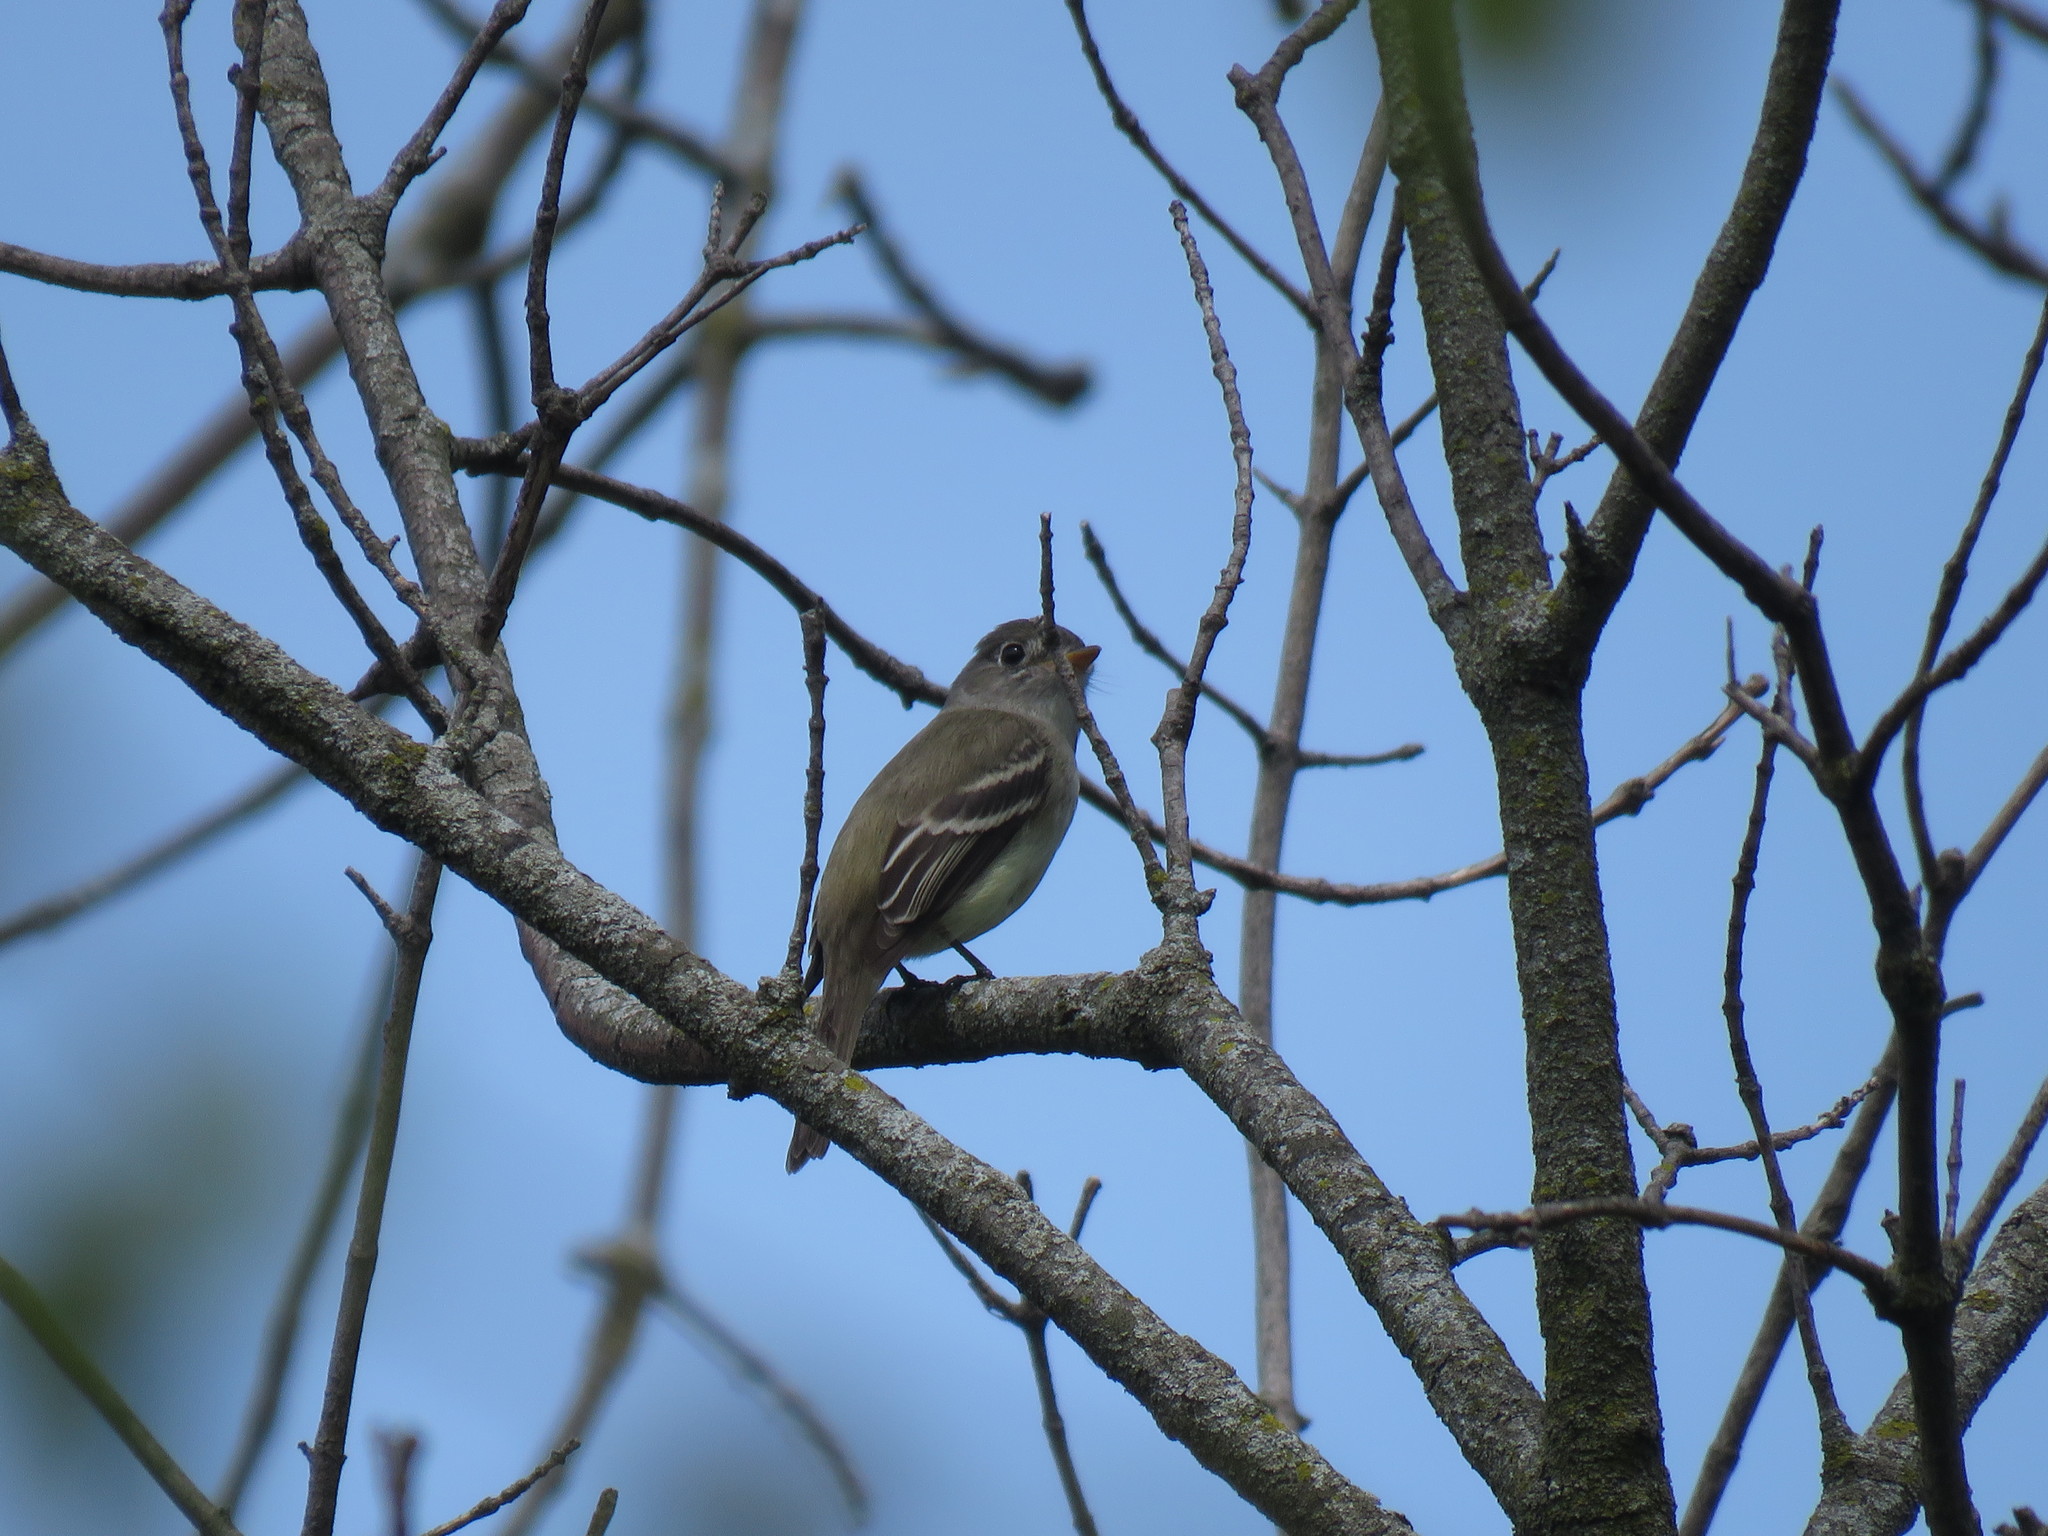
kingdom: Animalia
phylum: Chordata
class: Aves
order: Passeriformes
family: Tyrannidae
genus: Empidonax
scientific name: Empidonax minimus
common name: Least flycatcher
